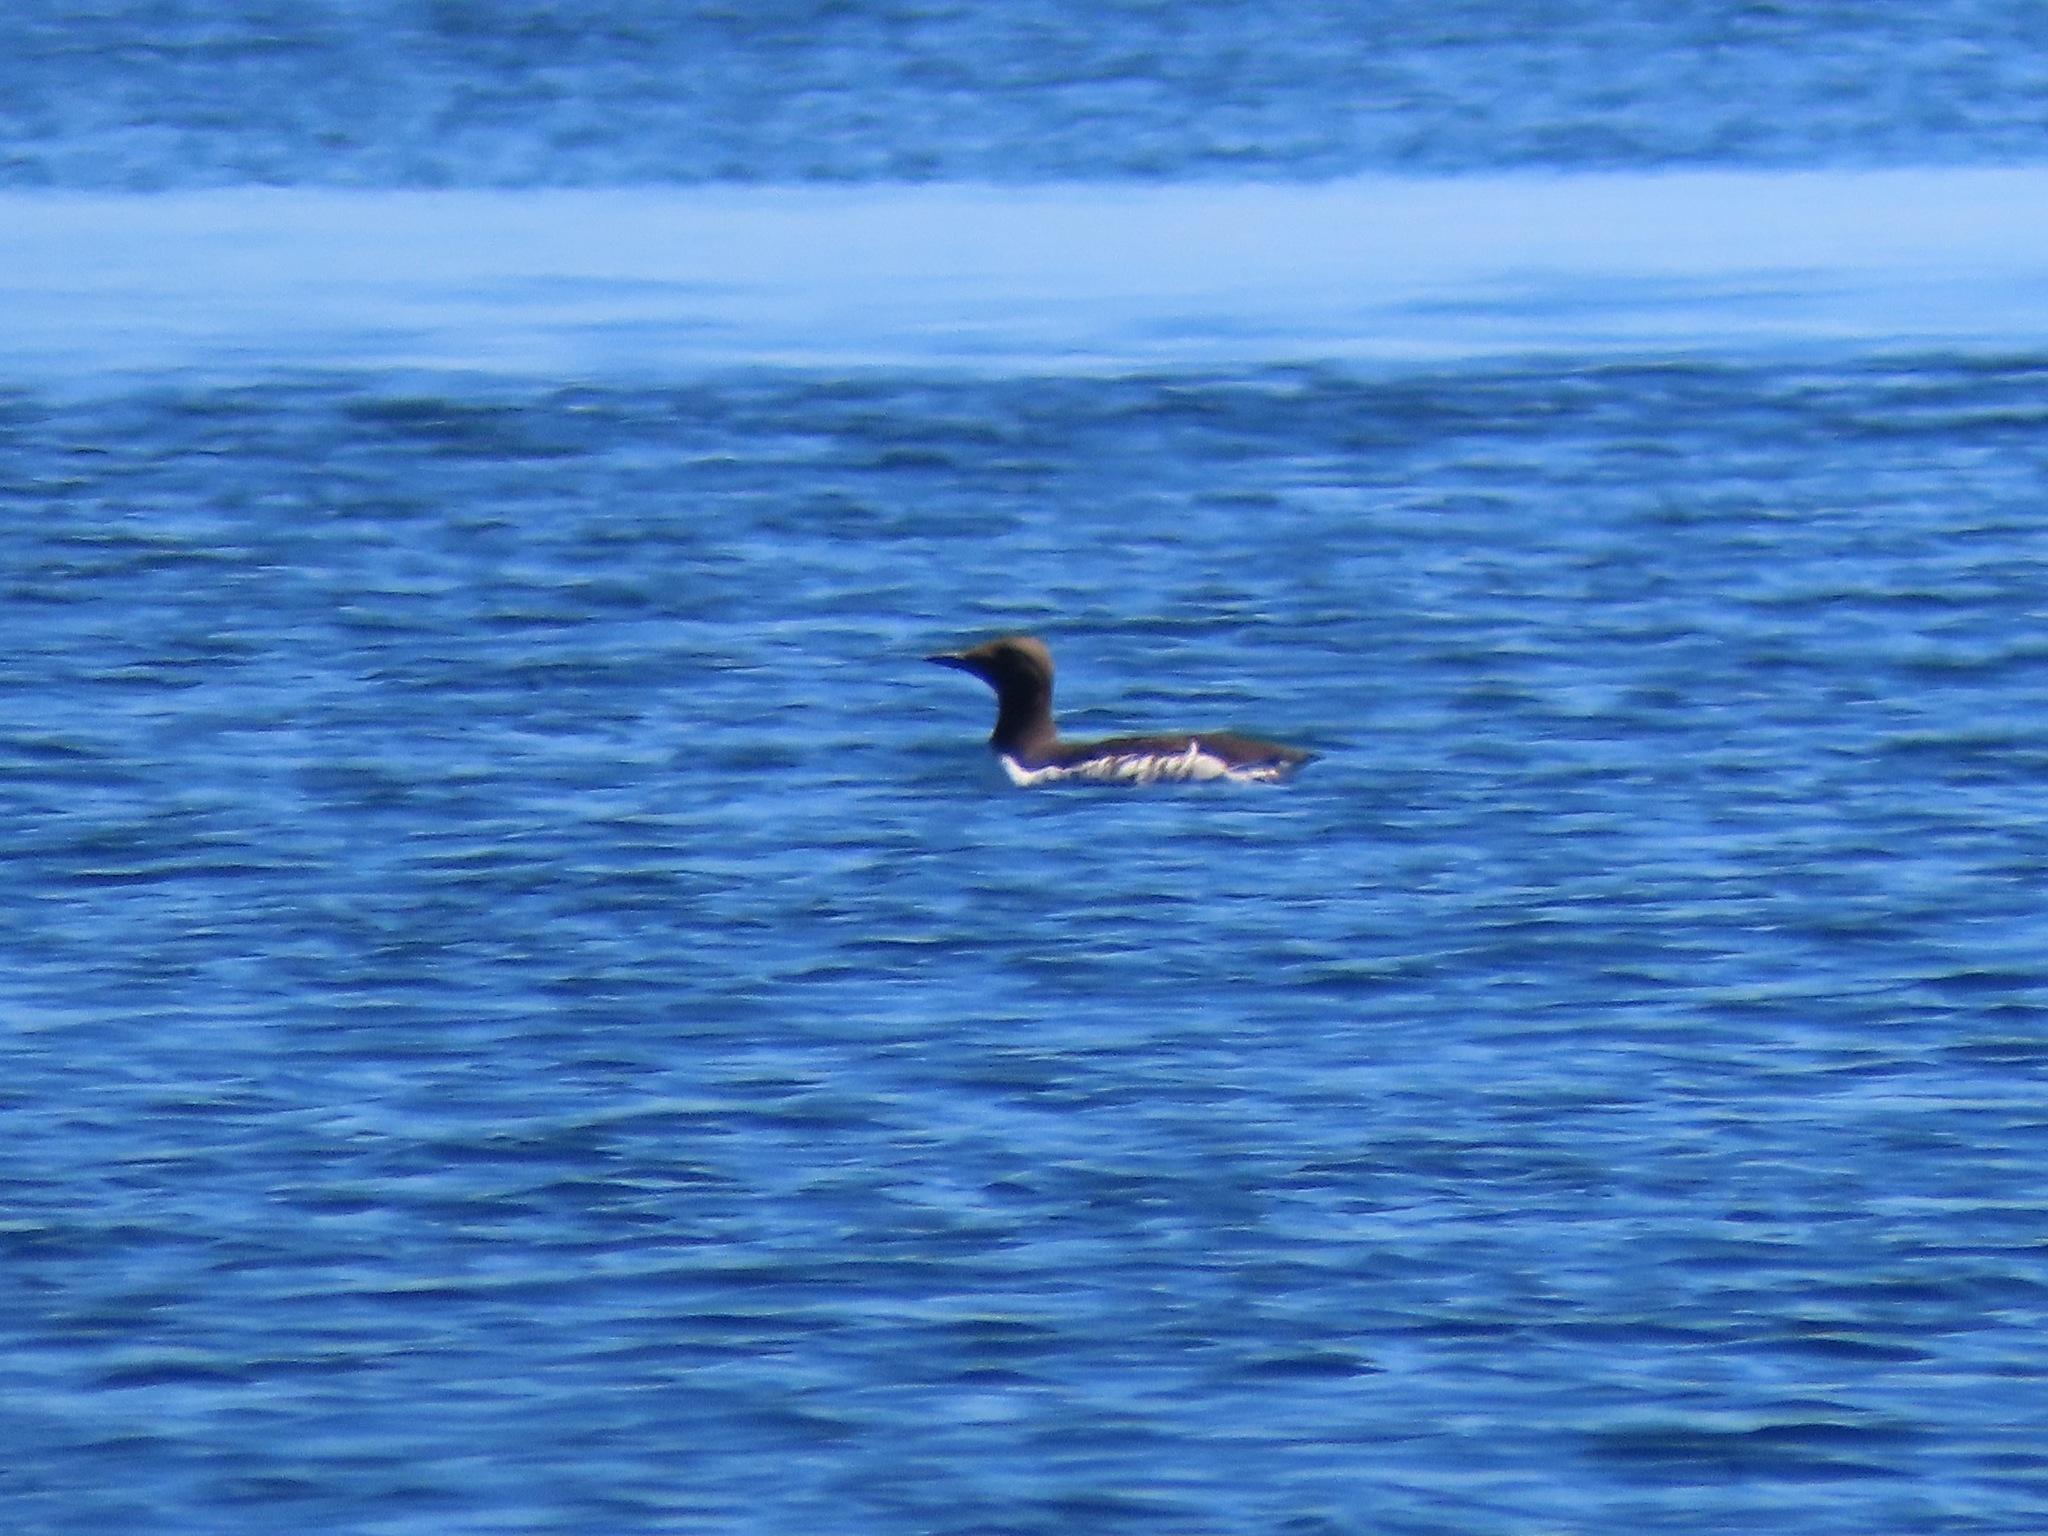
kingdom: Animalia
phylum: Chordata
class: Aves
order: Charadriiformes
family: Alcidae
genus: Uria
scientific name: Uria aalge
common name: Common murre
